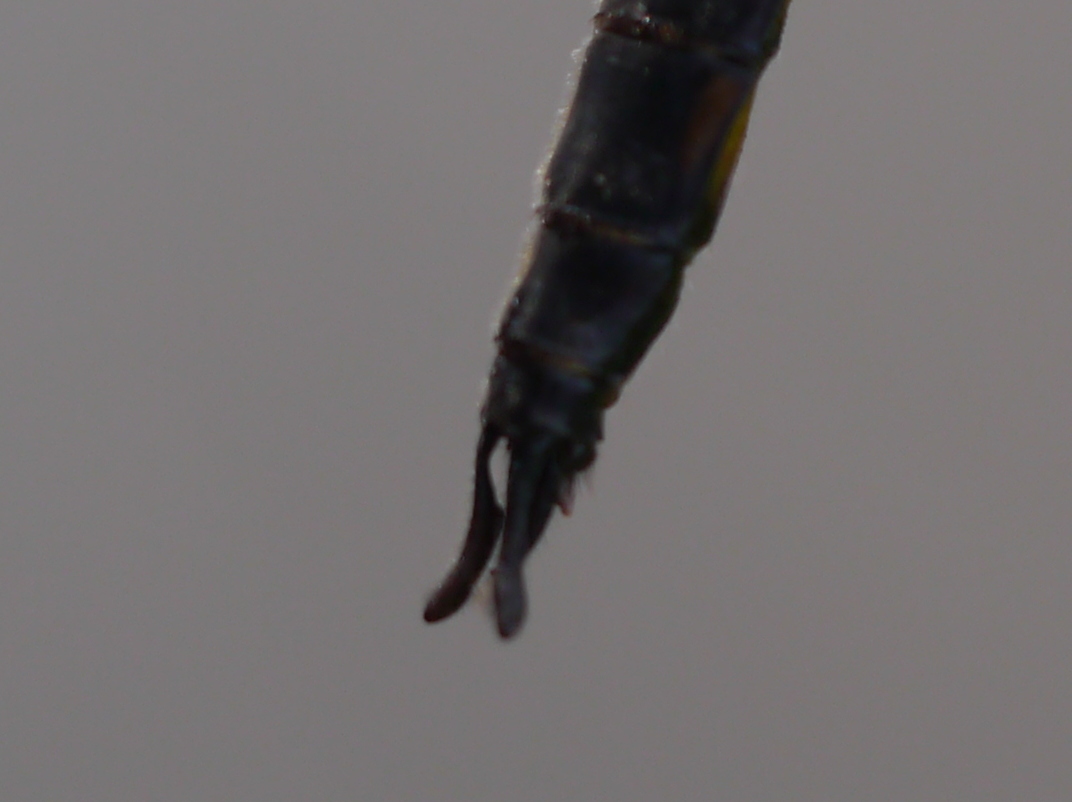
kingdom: Animalia
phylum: Arthropoda
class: Insecta
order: Odonata
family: Corduliidae
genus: Epitheca
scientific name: Epitheca cynosura
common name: Common baskettail
